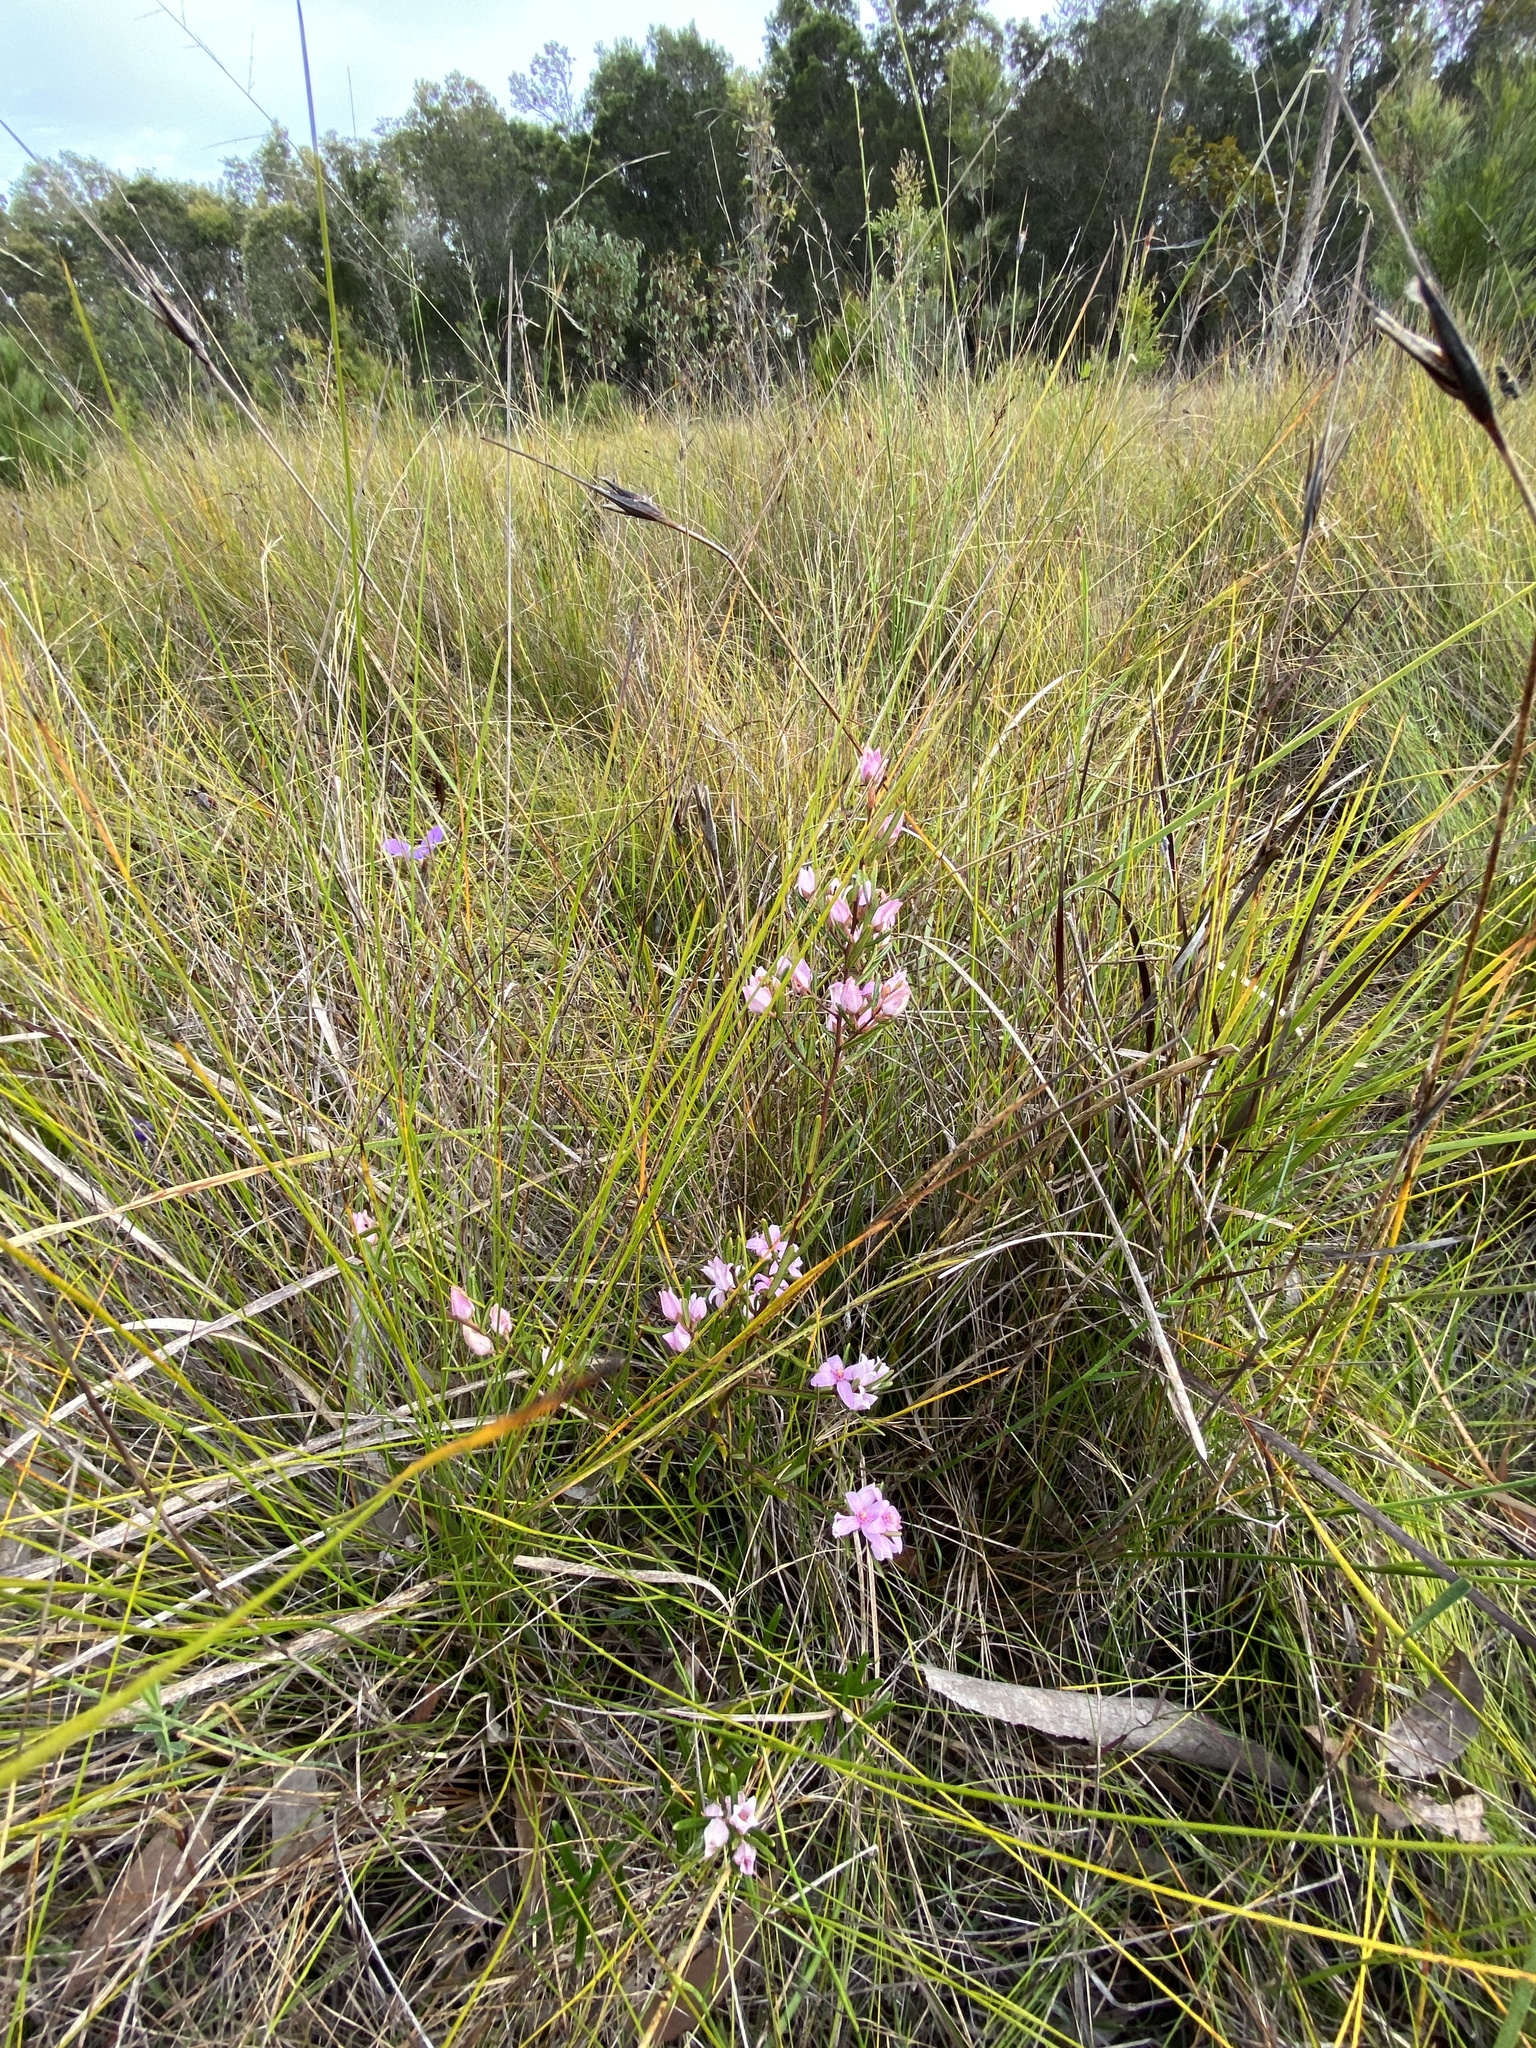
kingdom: Plantae
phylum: Tracheophyta
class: Magnoliopsida
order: Sapindales
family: Rutaceae
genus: Boronia
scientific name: Boronia rosmarinifolia
